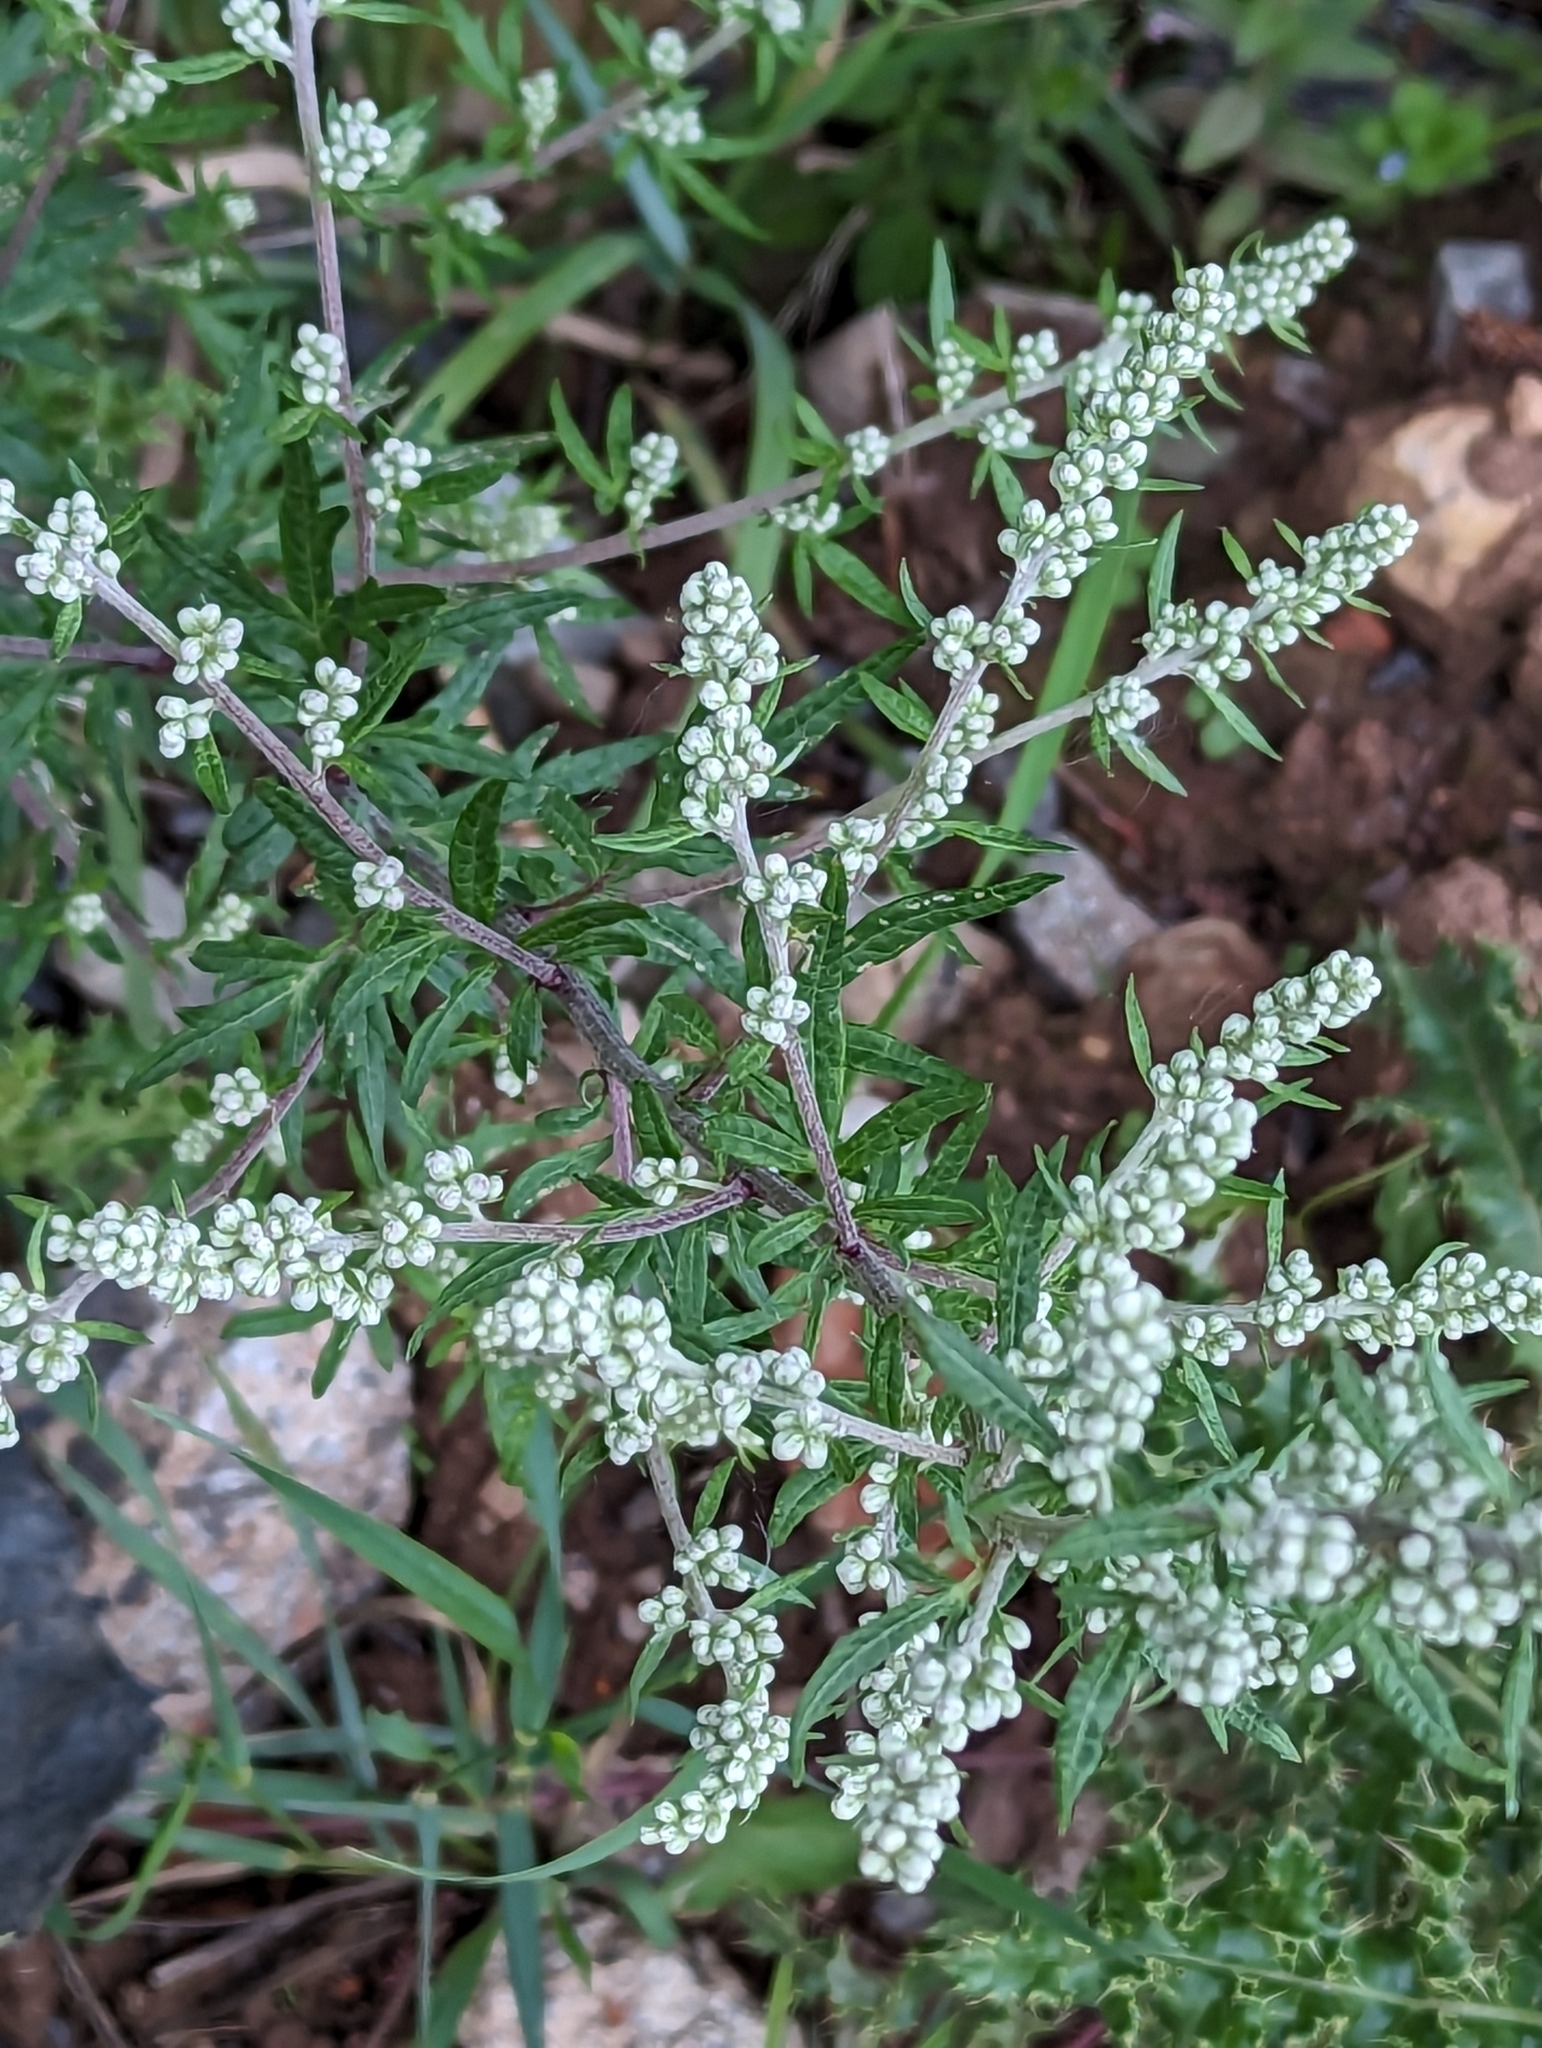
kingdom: Plantae
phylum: Tracheophyta
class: Magnoliopsida
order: Asterales
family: Asteraceae
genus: Artemisia
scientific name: Artemisia vulgaris
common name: Mugwort
